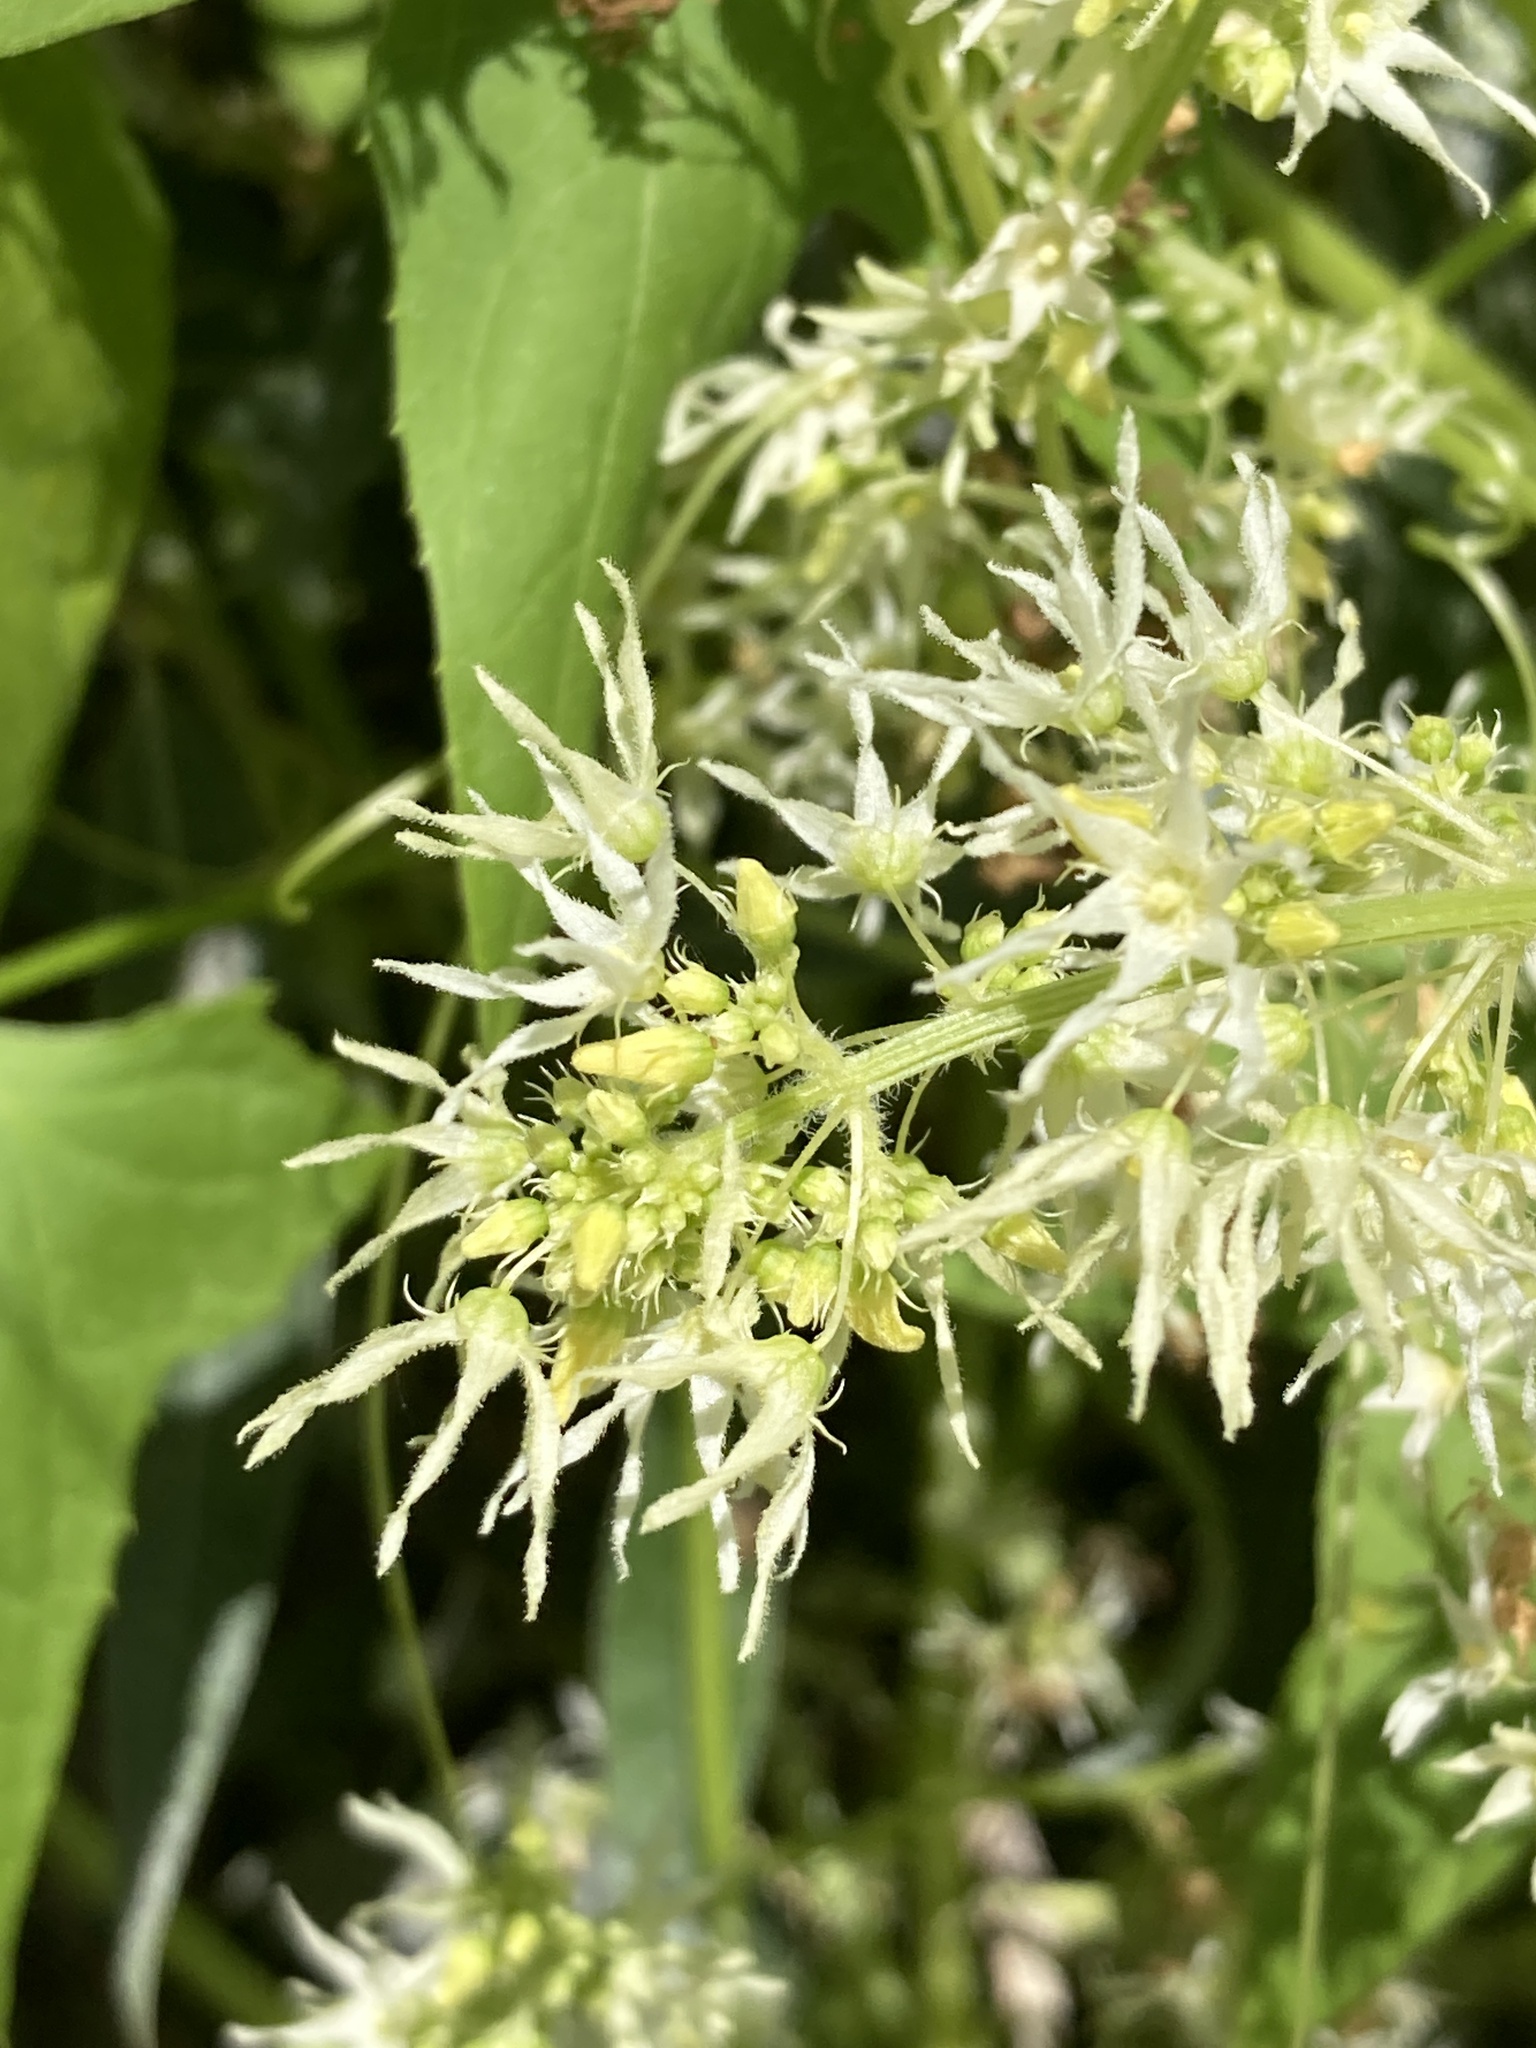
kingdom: Plantae
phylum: Tracheophyta
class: Magnoliopsida
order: Cucurbitales
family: Cucurbitaceae
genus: Echinocystis
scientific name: Echinocystis lobata
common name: Wild cucumber
